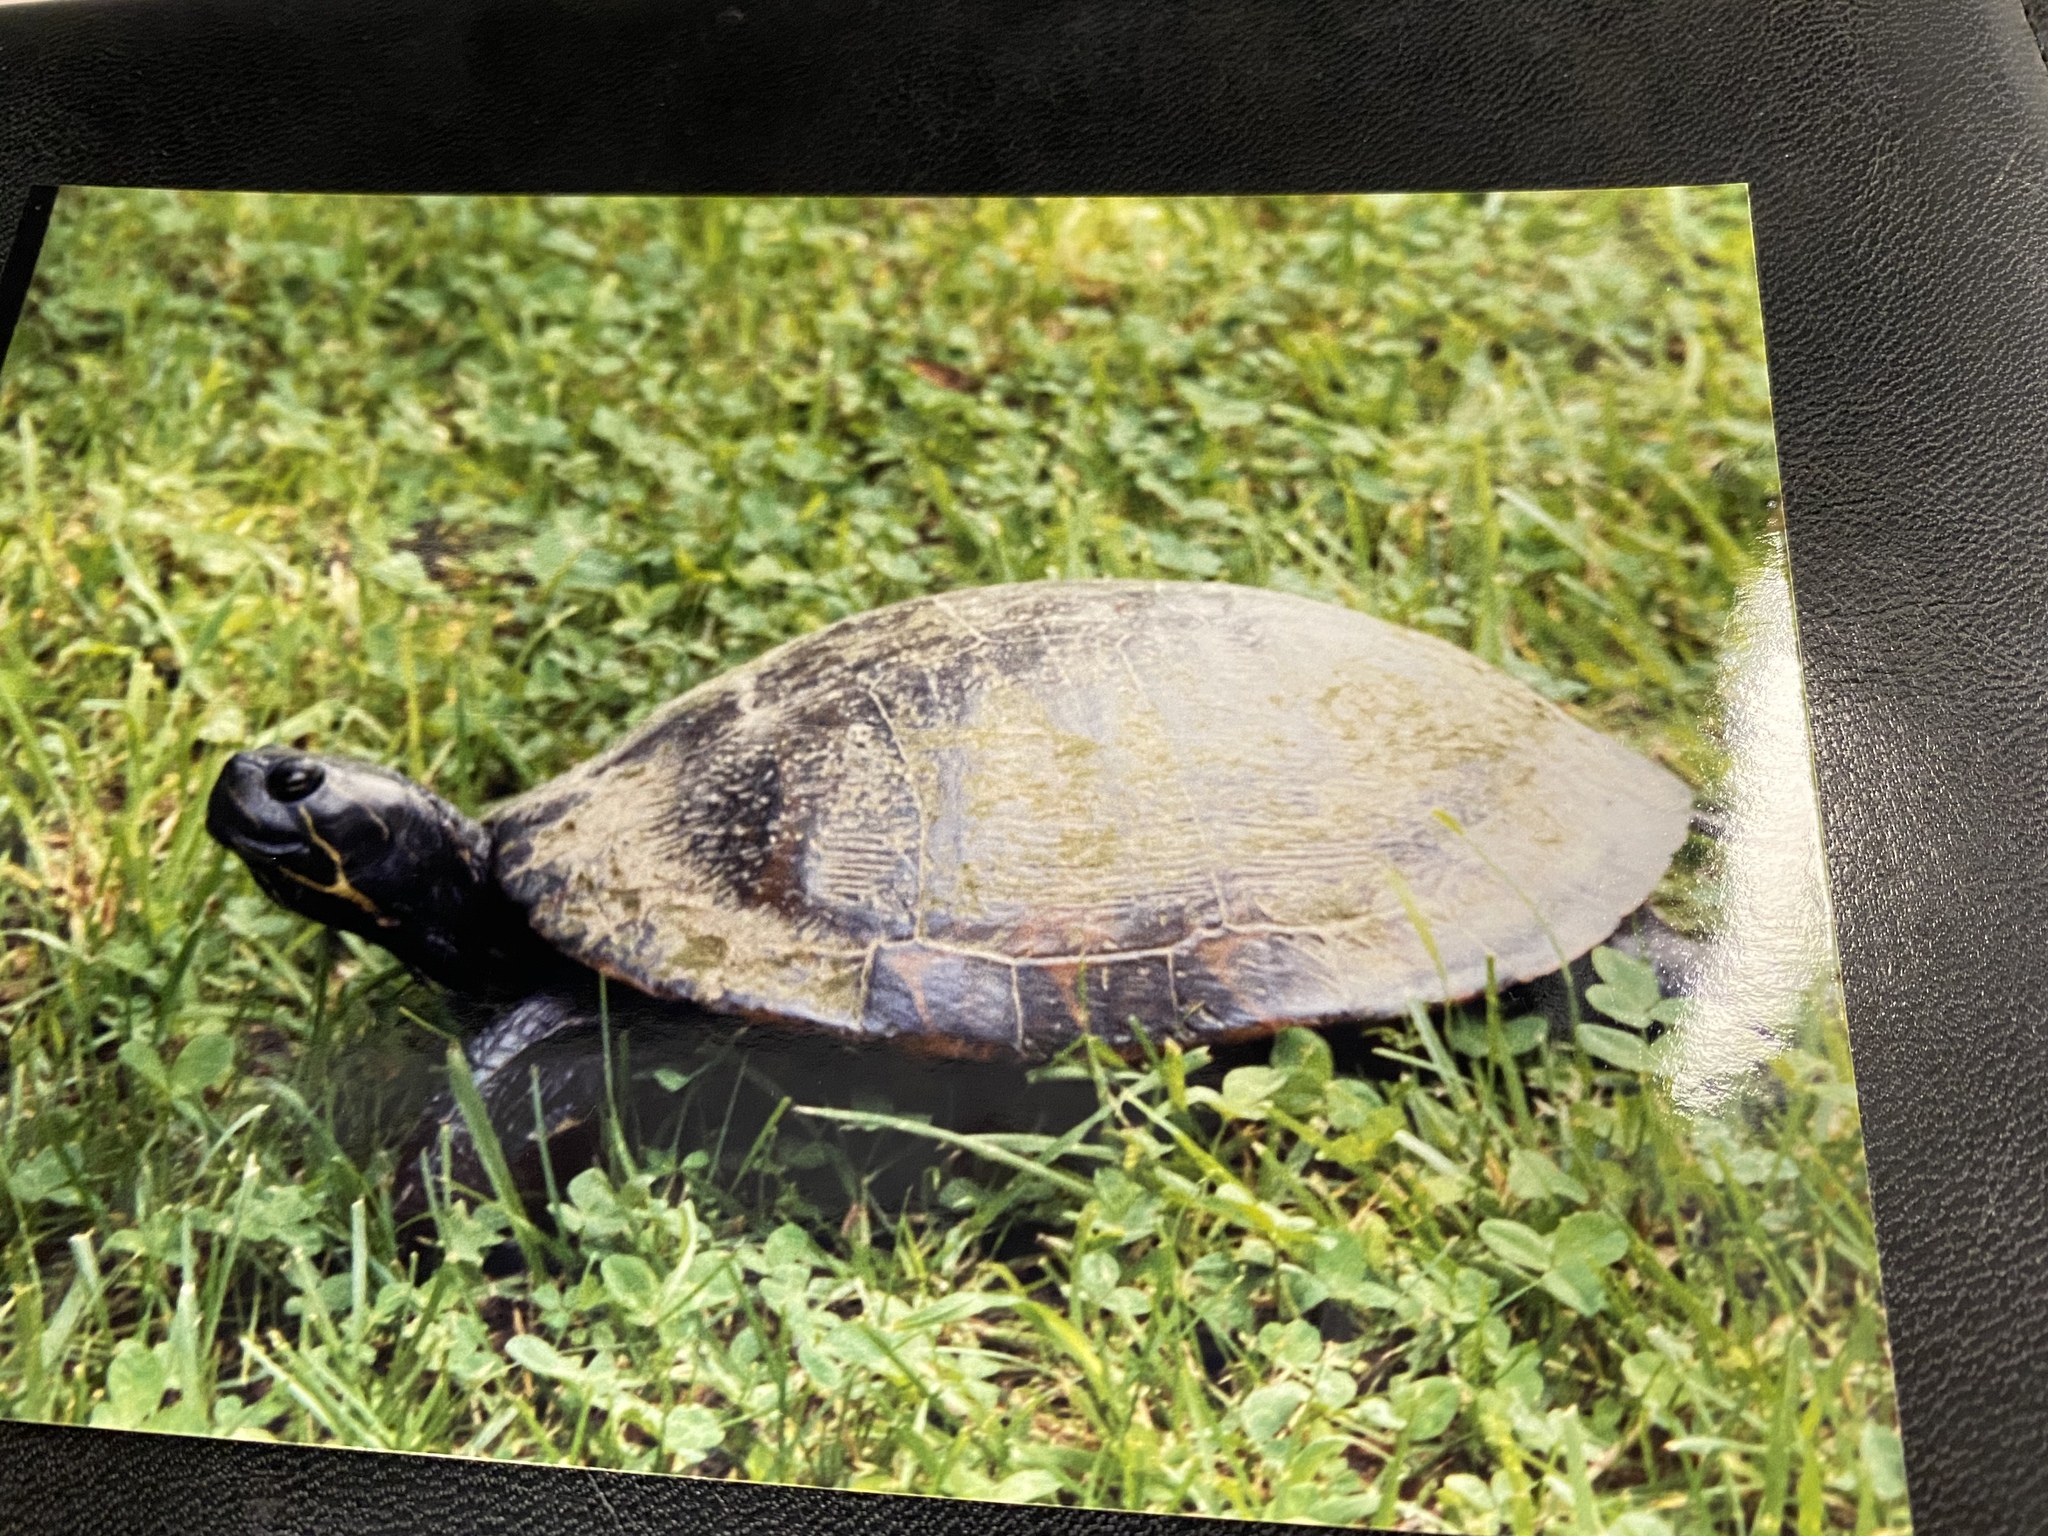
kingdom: Animalia
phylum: Chordata
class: Testudines
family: Emydidae
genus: Pseudemys
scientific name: Pseudemys rubriventris
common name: American red-bellied turtle
